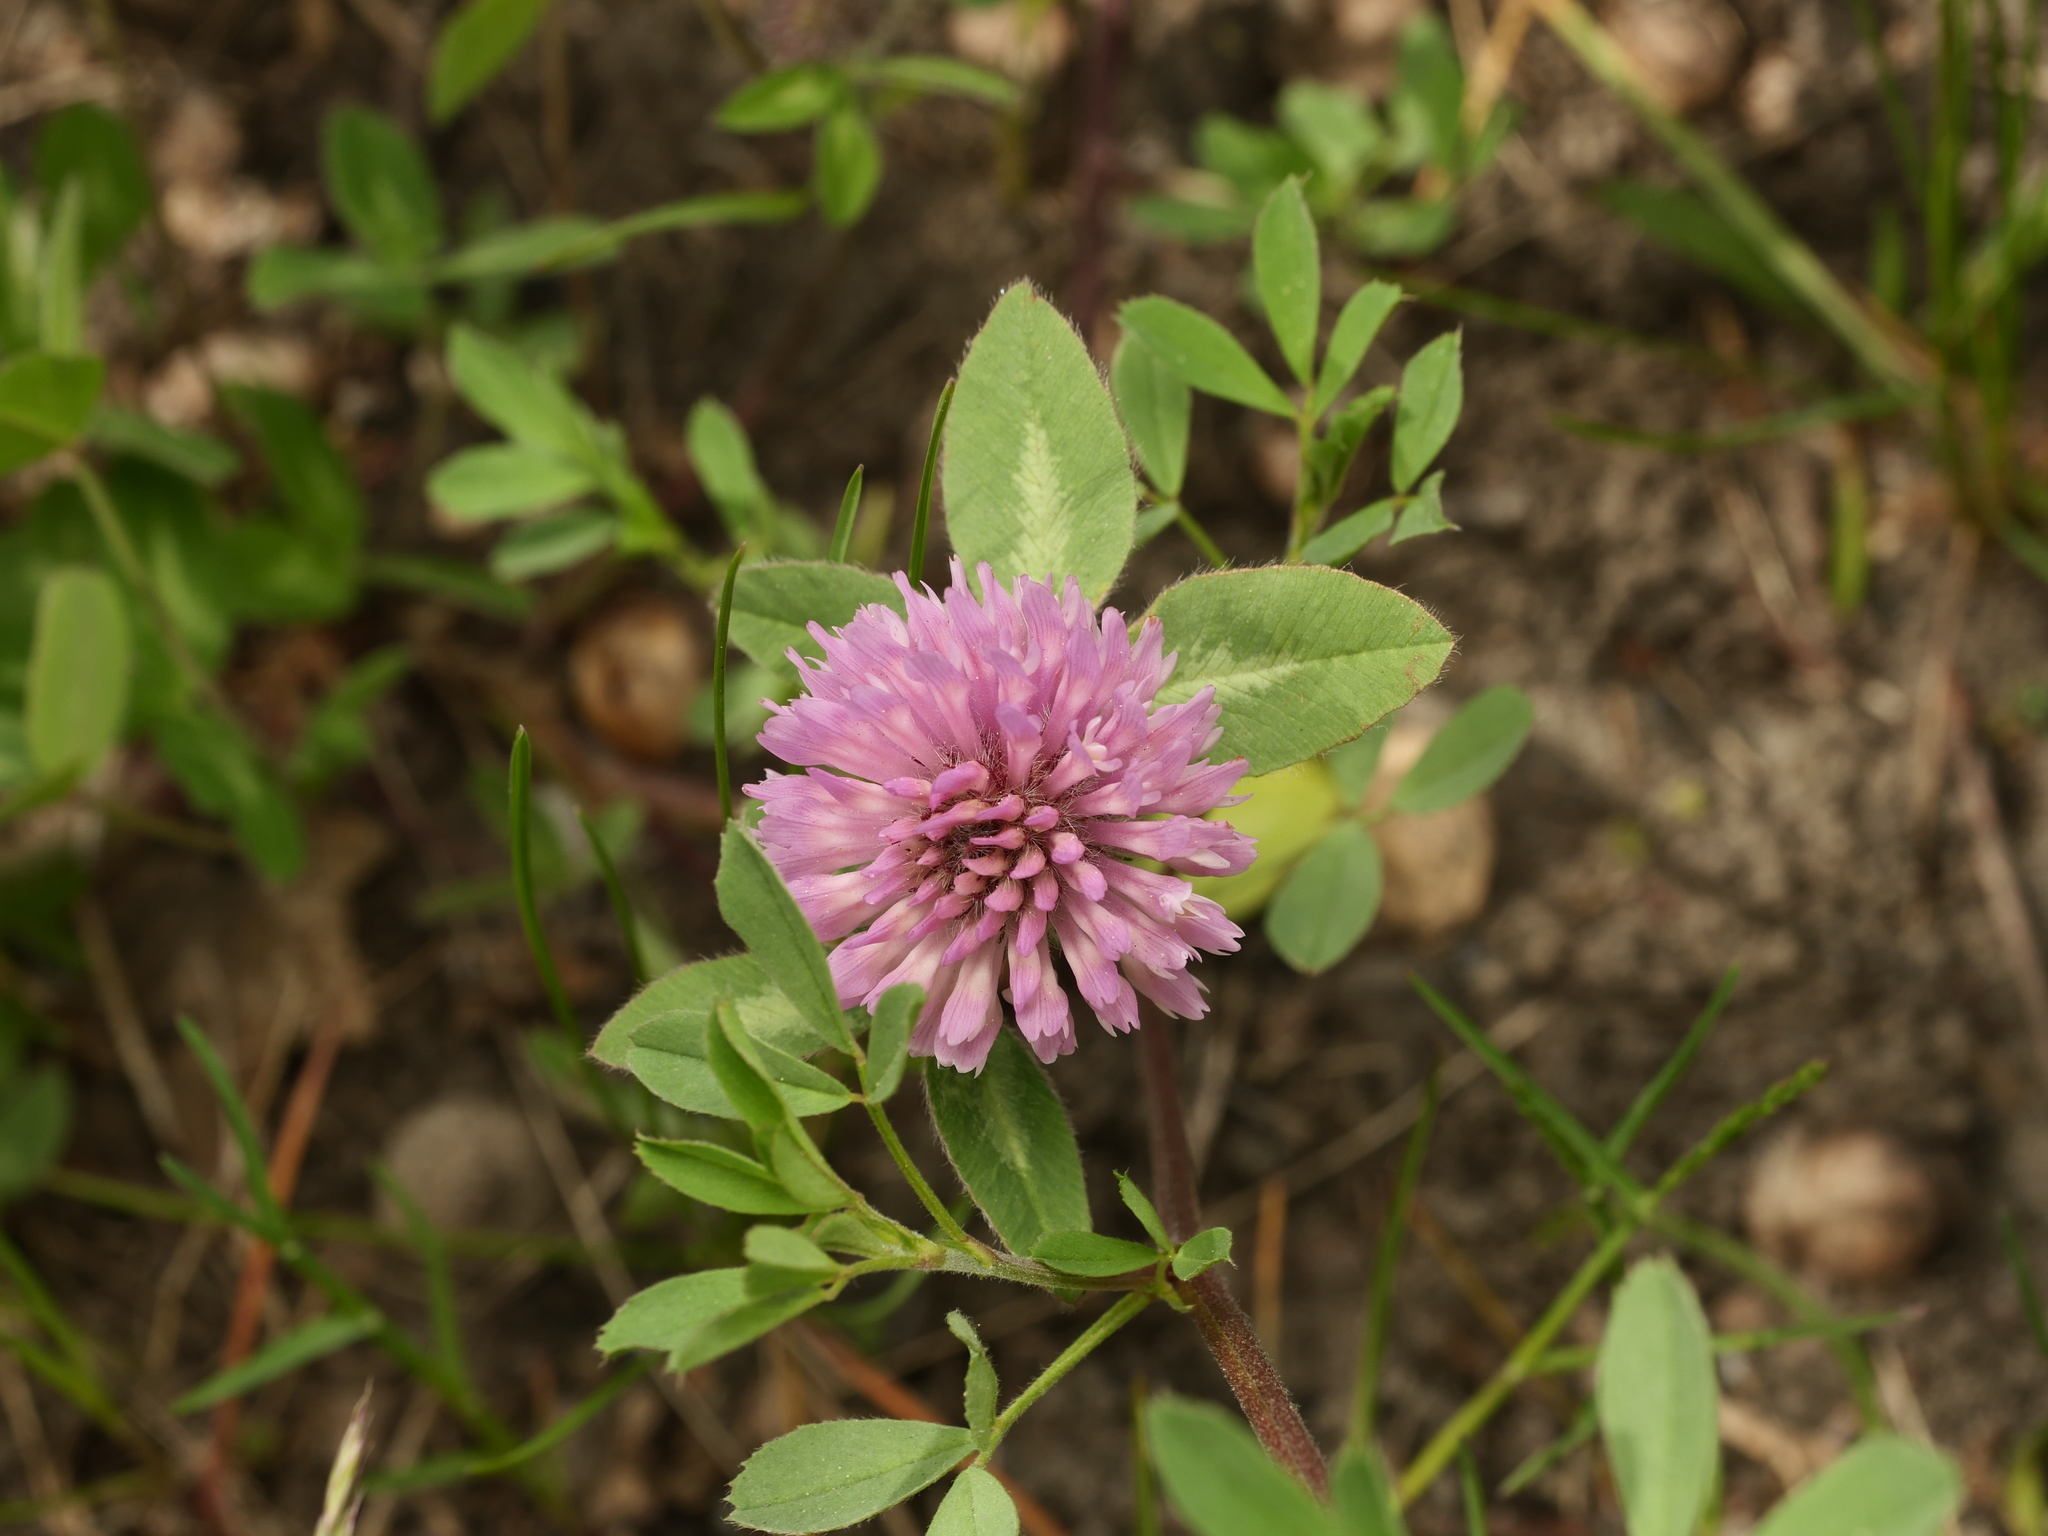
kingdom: Plantae
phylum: Tracheophyta
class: Magnoliopsida
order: Fabales
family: Fabaceae
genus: Trifolium
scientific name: Trifolium pratense
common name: Red clover
